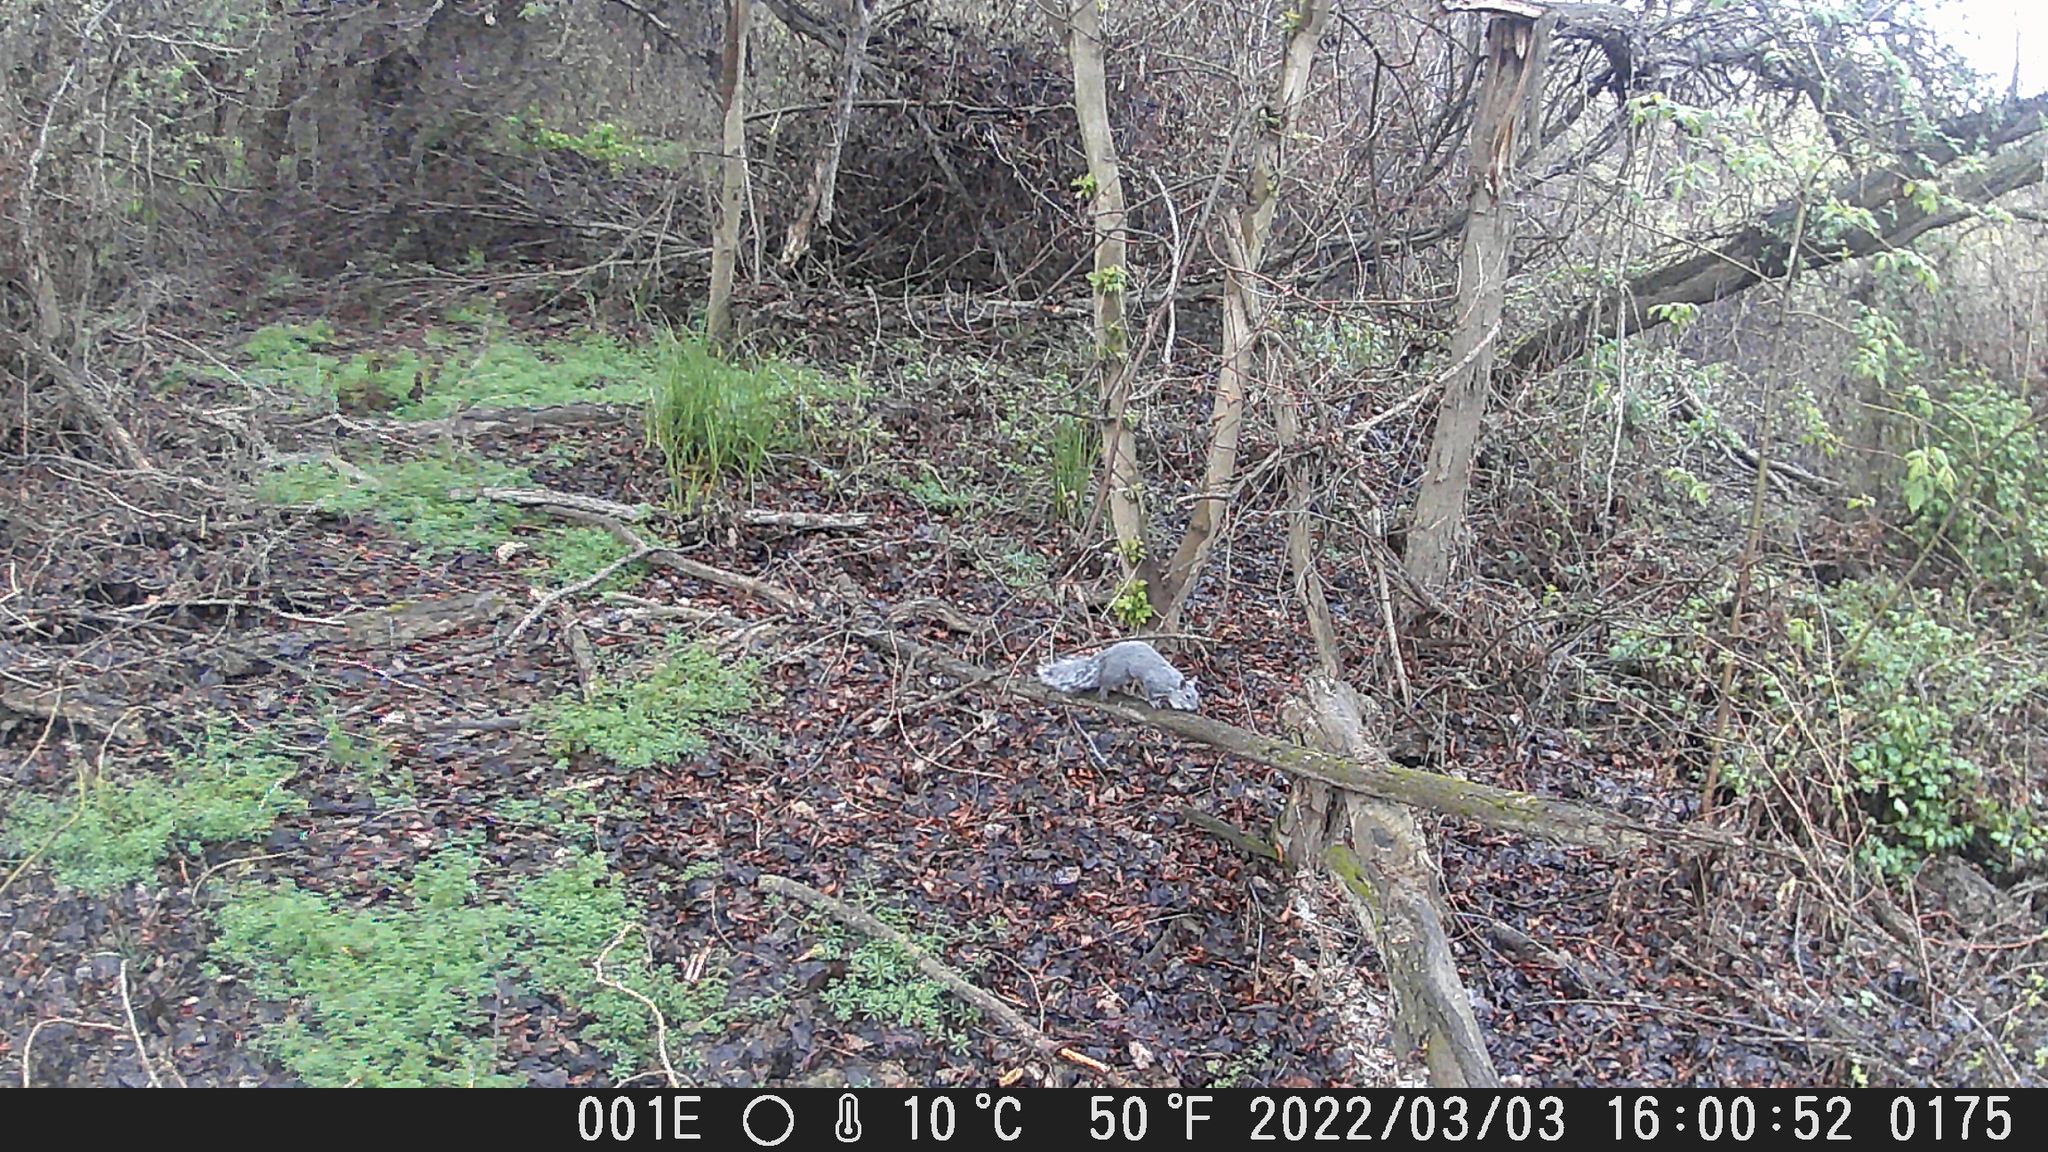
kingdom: Animalia
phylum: Chordata
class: Mammalia
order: Rodentia
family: Sciuridae
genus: Sciurus
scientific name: Sciurus griseus
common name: Western gray squirrel
